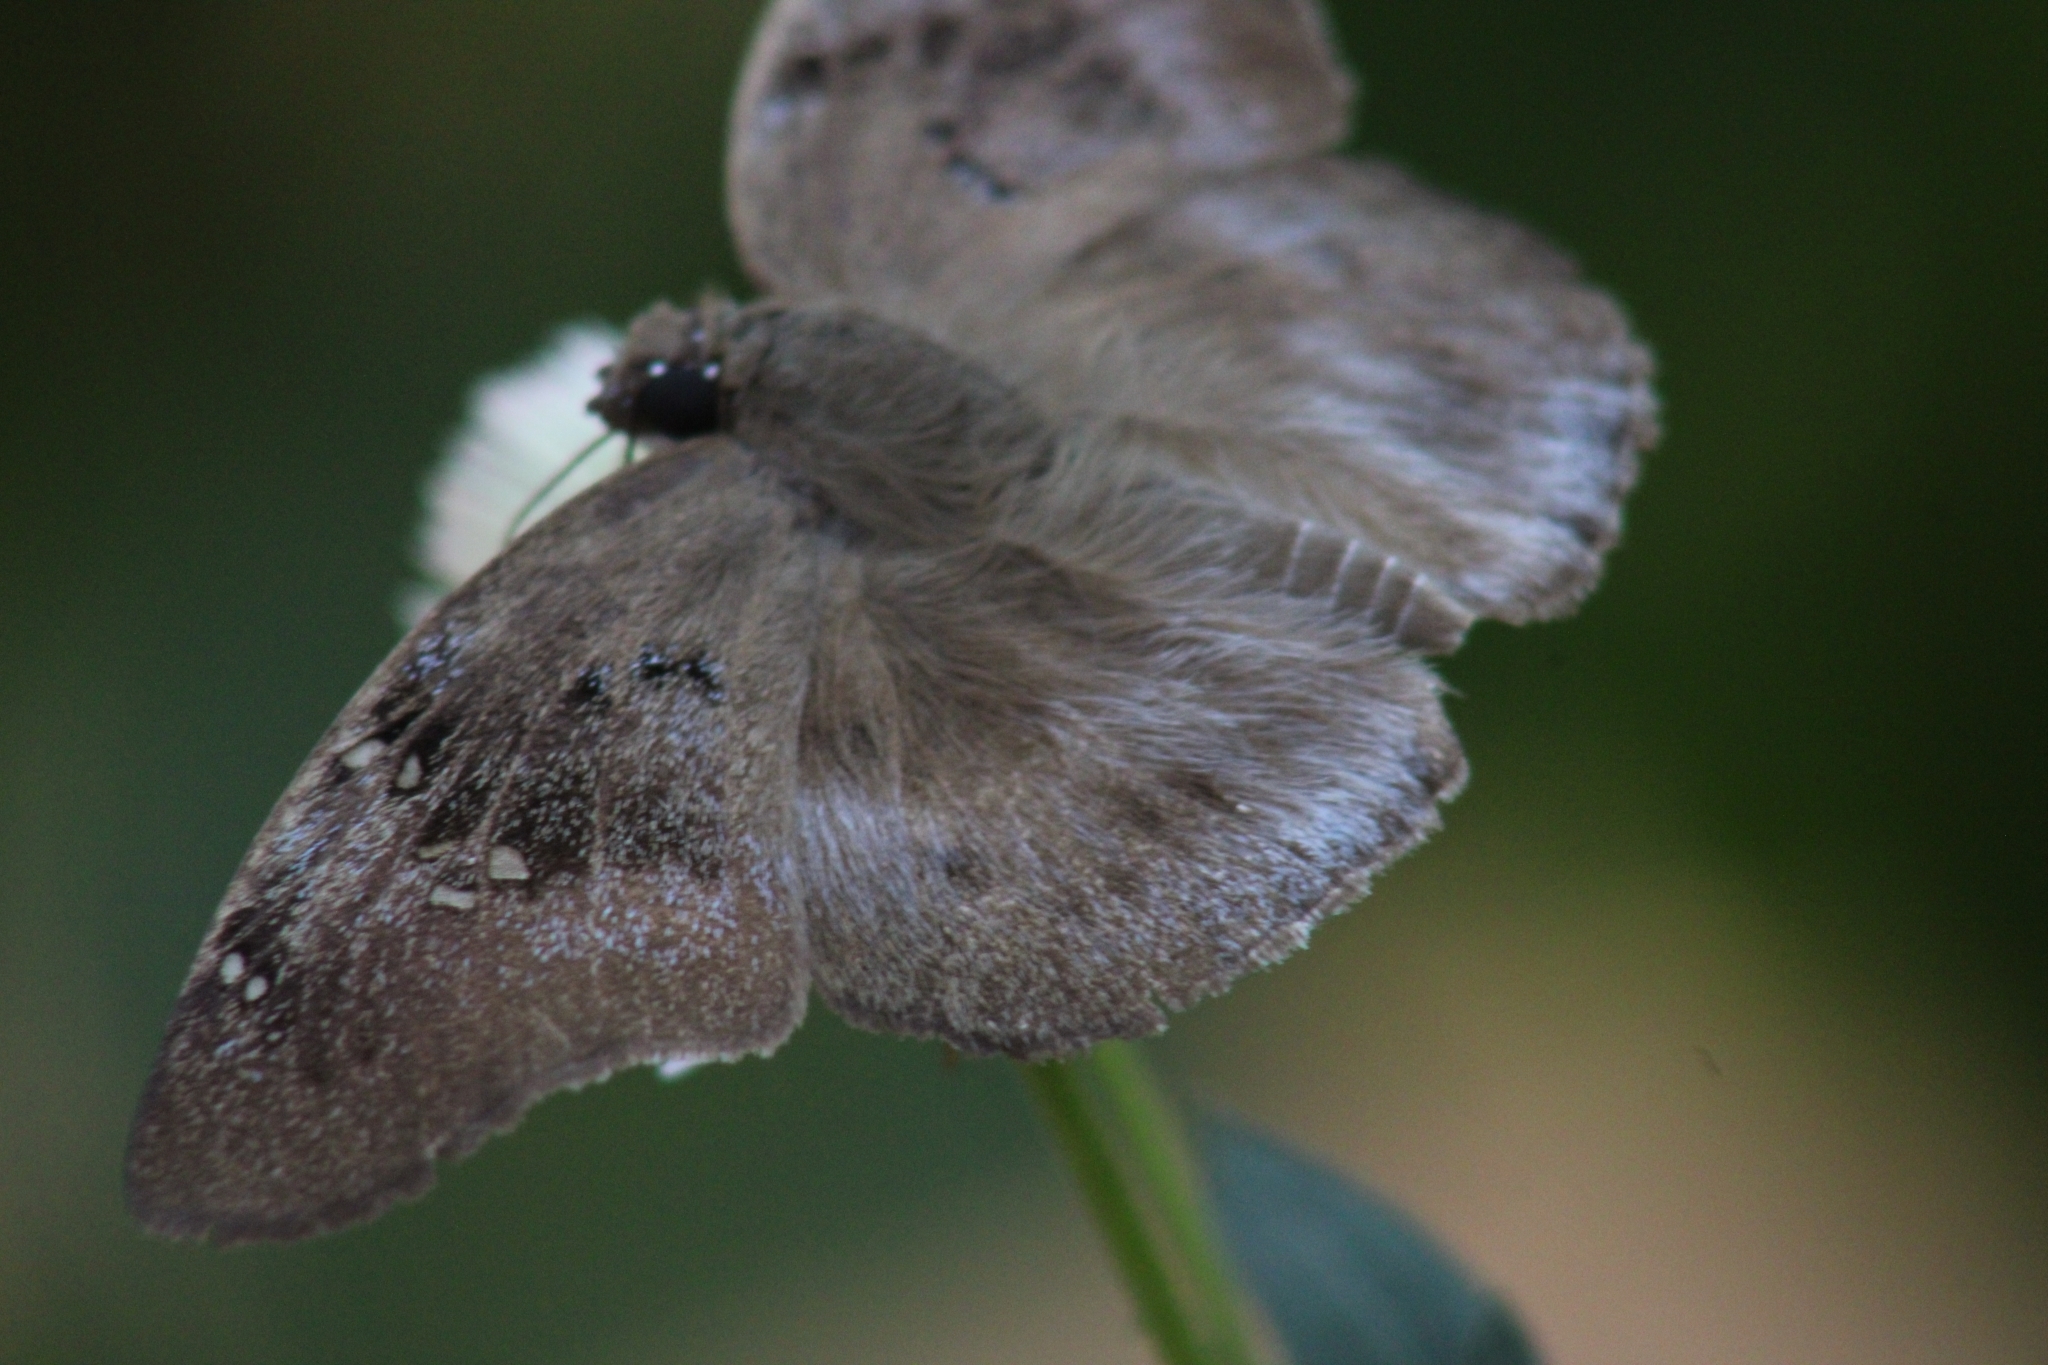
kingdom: Animalia
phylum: Arthropoda
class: Insecta
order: Lepidoptera
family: Hesperiidae
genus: Tagiades
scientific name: Tagiades flesus
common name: Clouded flat
